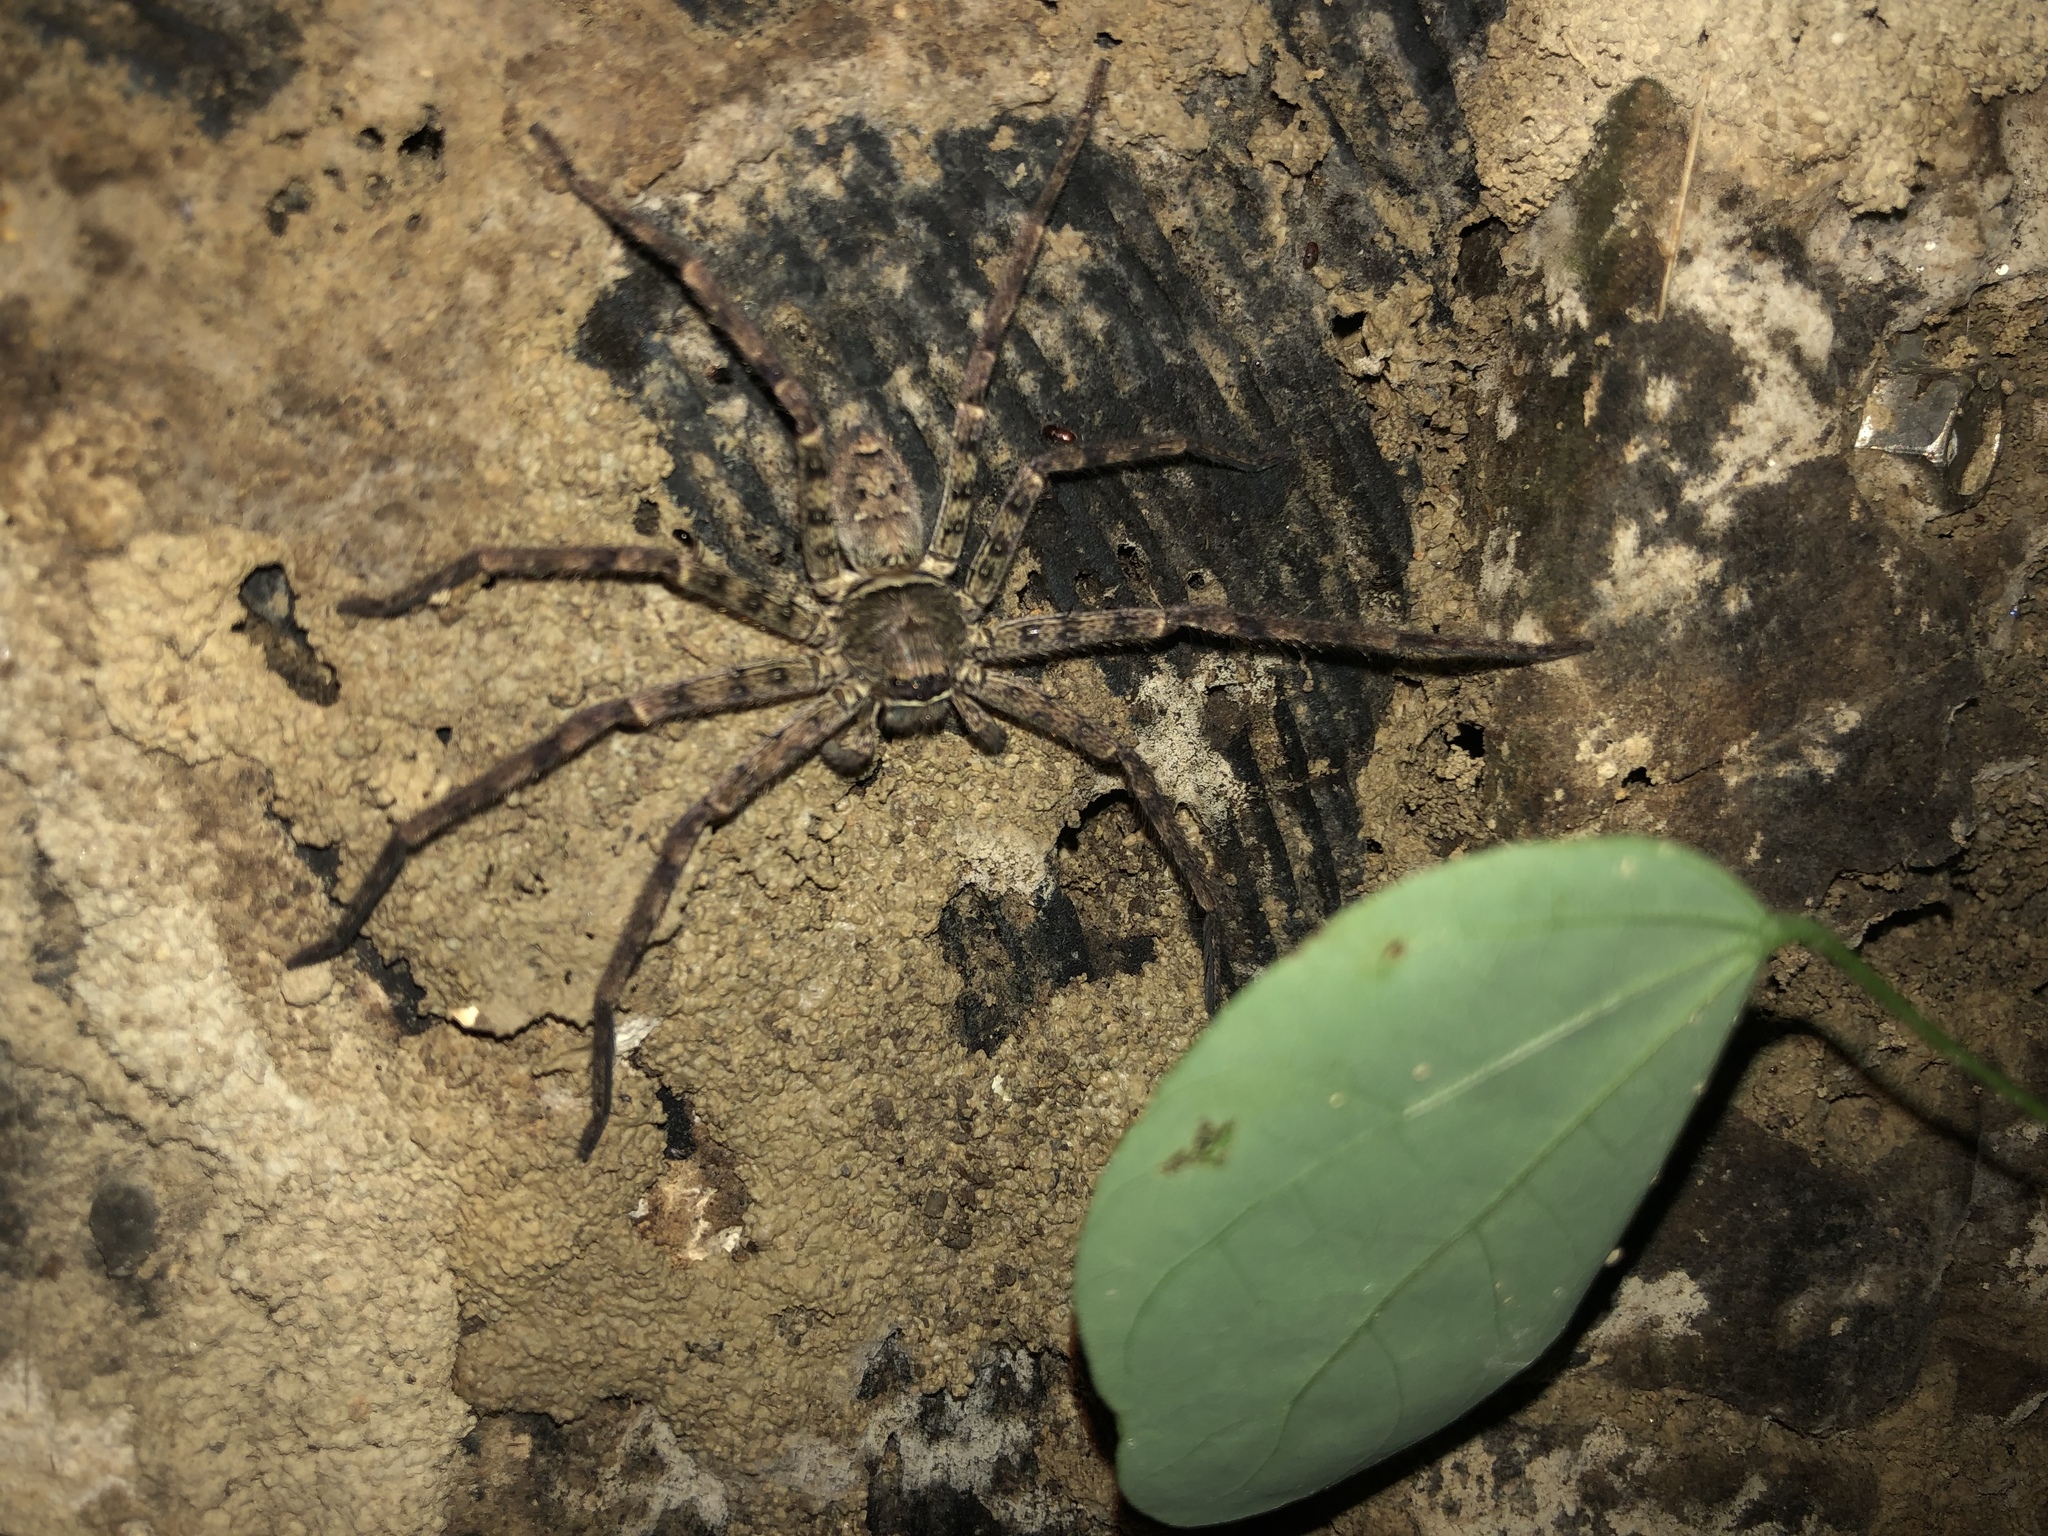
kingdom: Animalia
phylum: Arthropoda
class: Arachnida
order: Araneae
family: Sparassidae
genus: Heteropoda
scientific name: Heteropoda venatoria
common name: Huntsman spider
